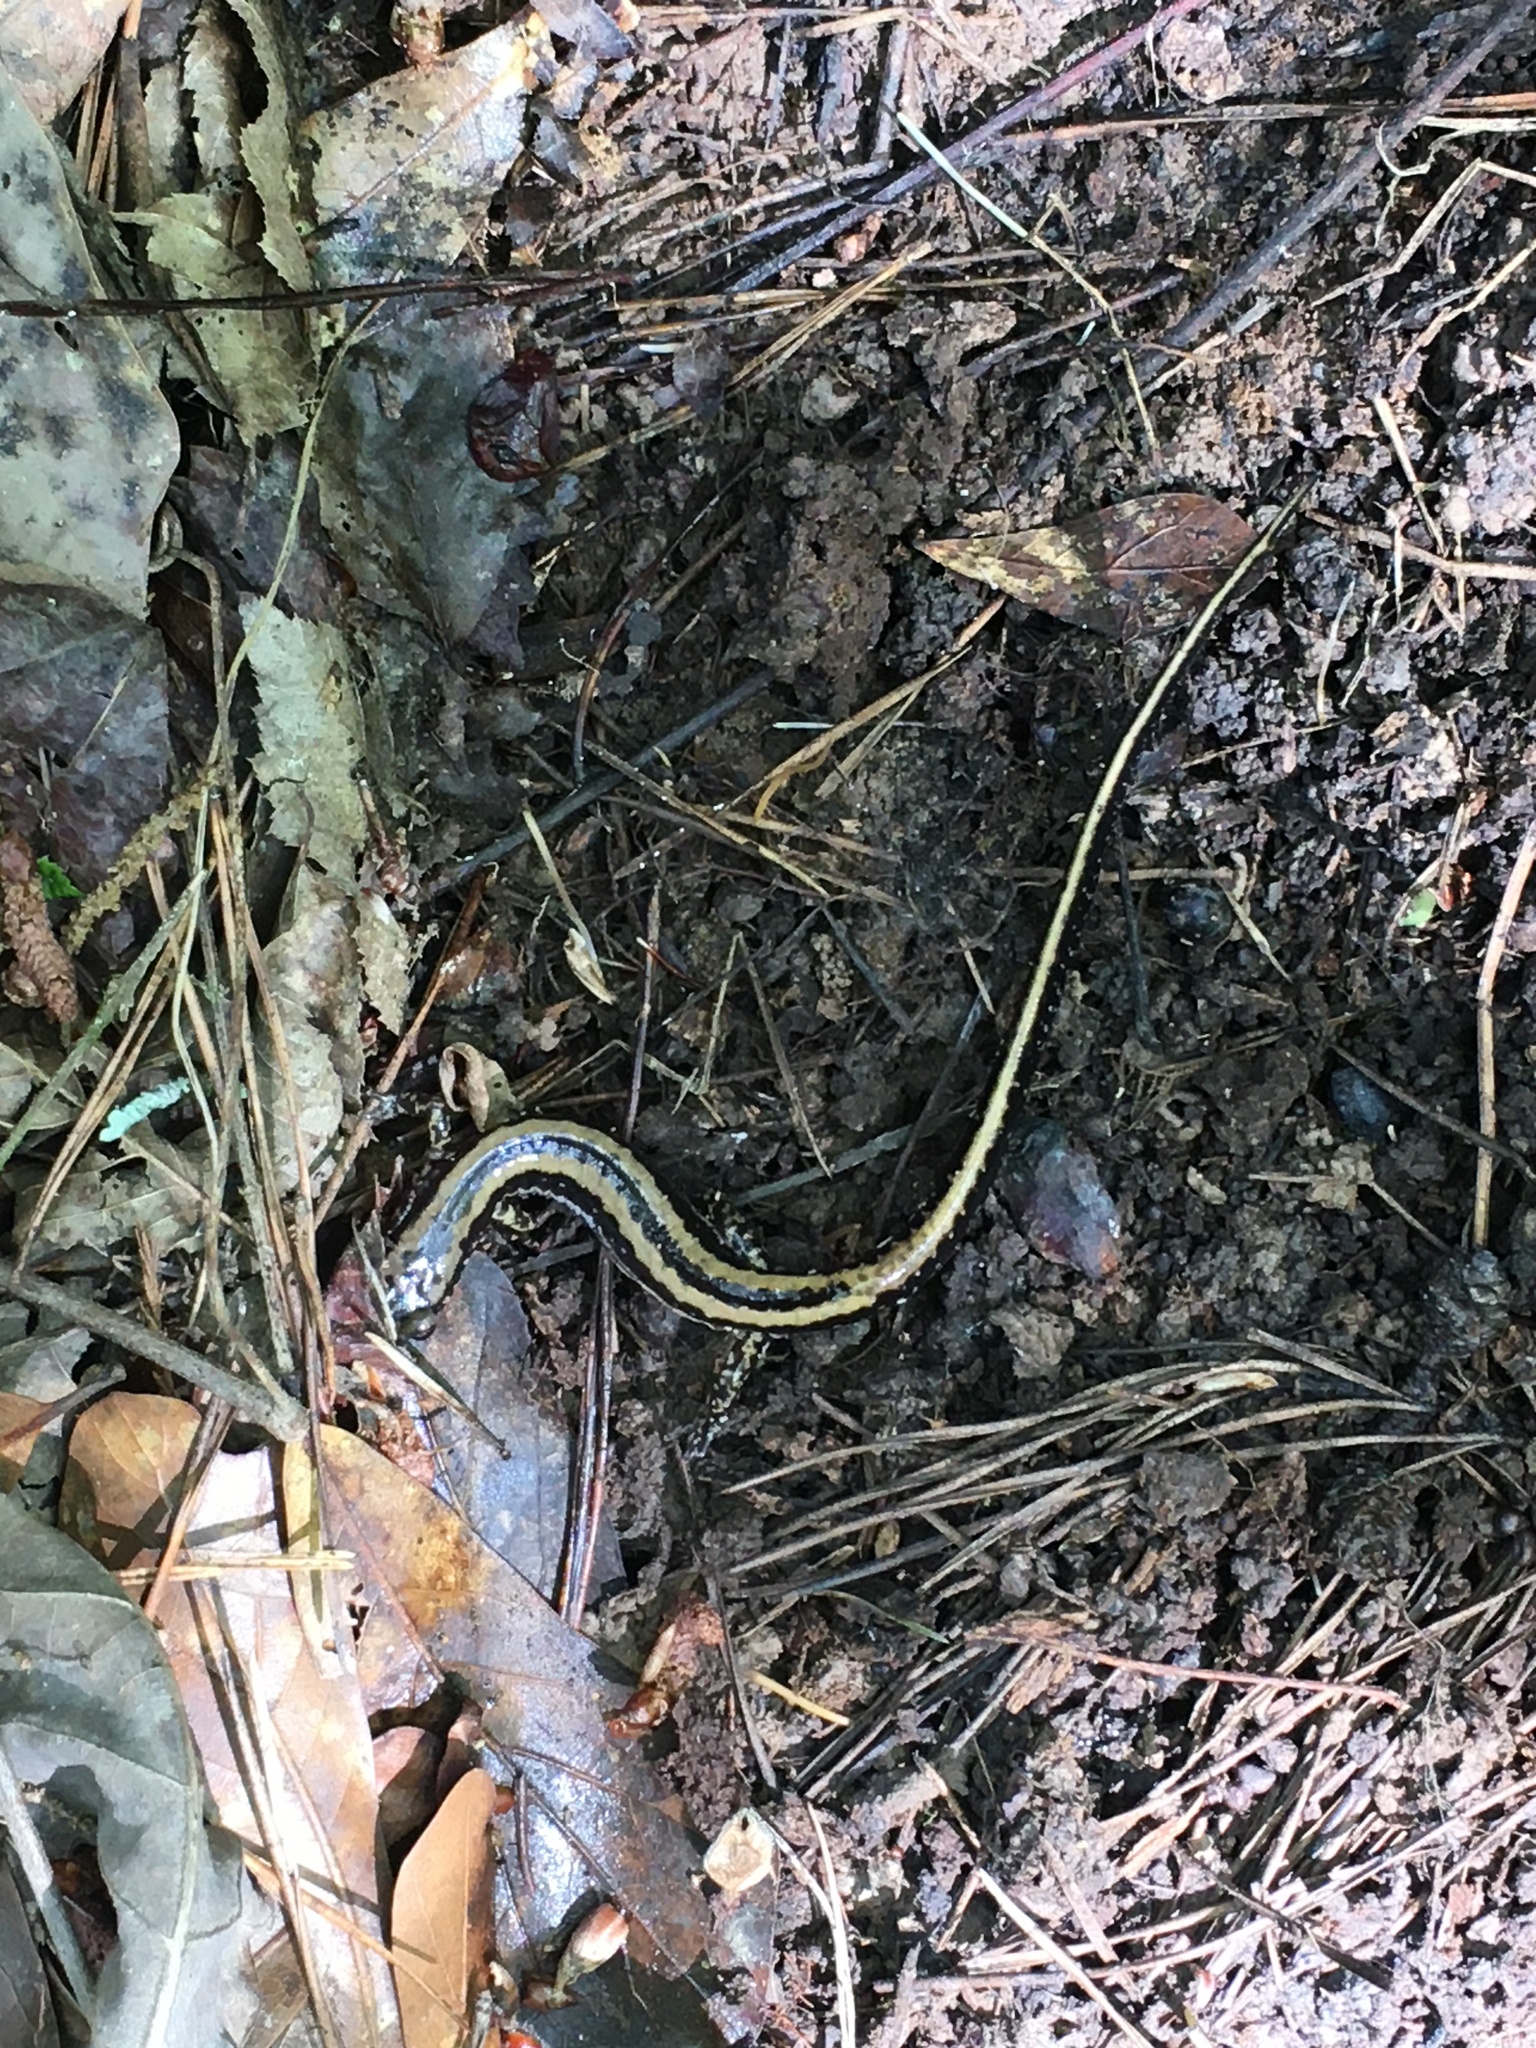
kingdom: Animalia
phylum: Chordata
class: Amphibia
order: Caudata
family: Plethodontidae
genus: Eurycea
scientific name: Eurycea guttolineata
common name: Three-lined salamander
